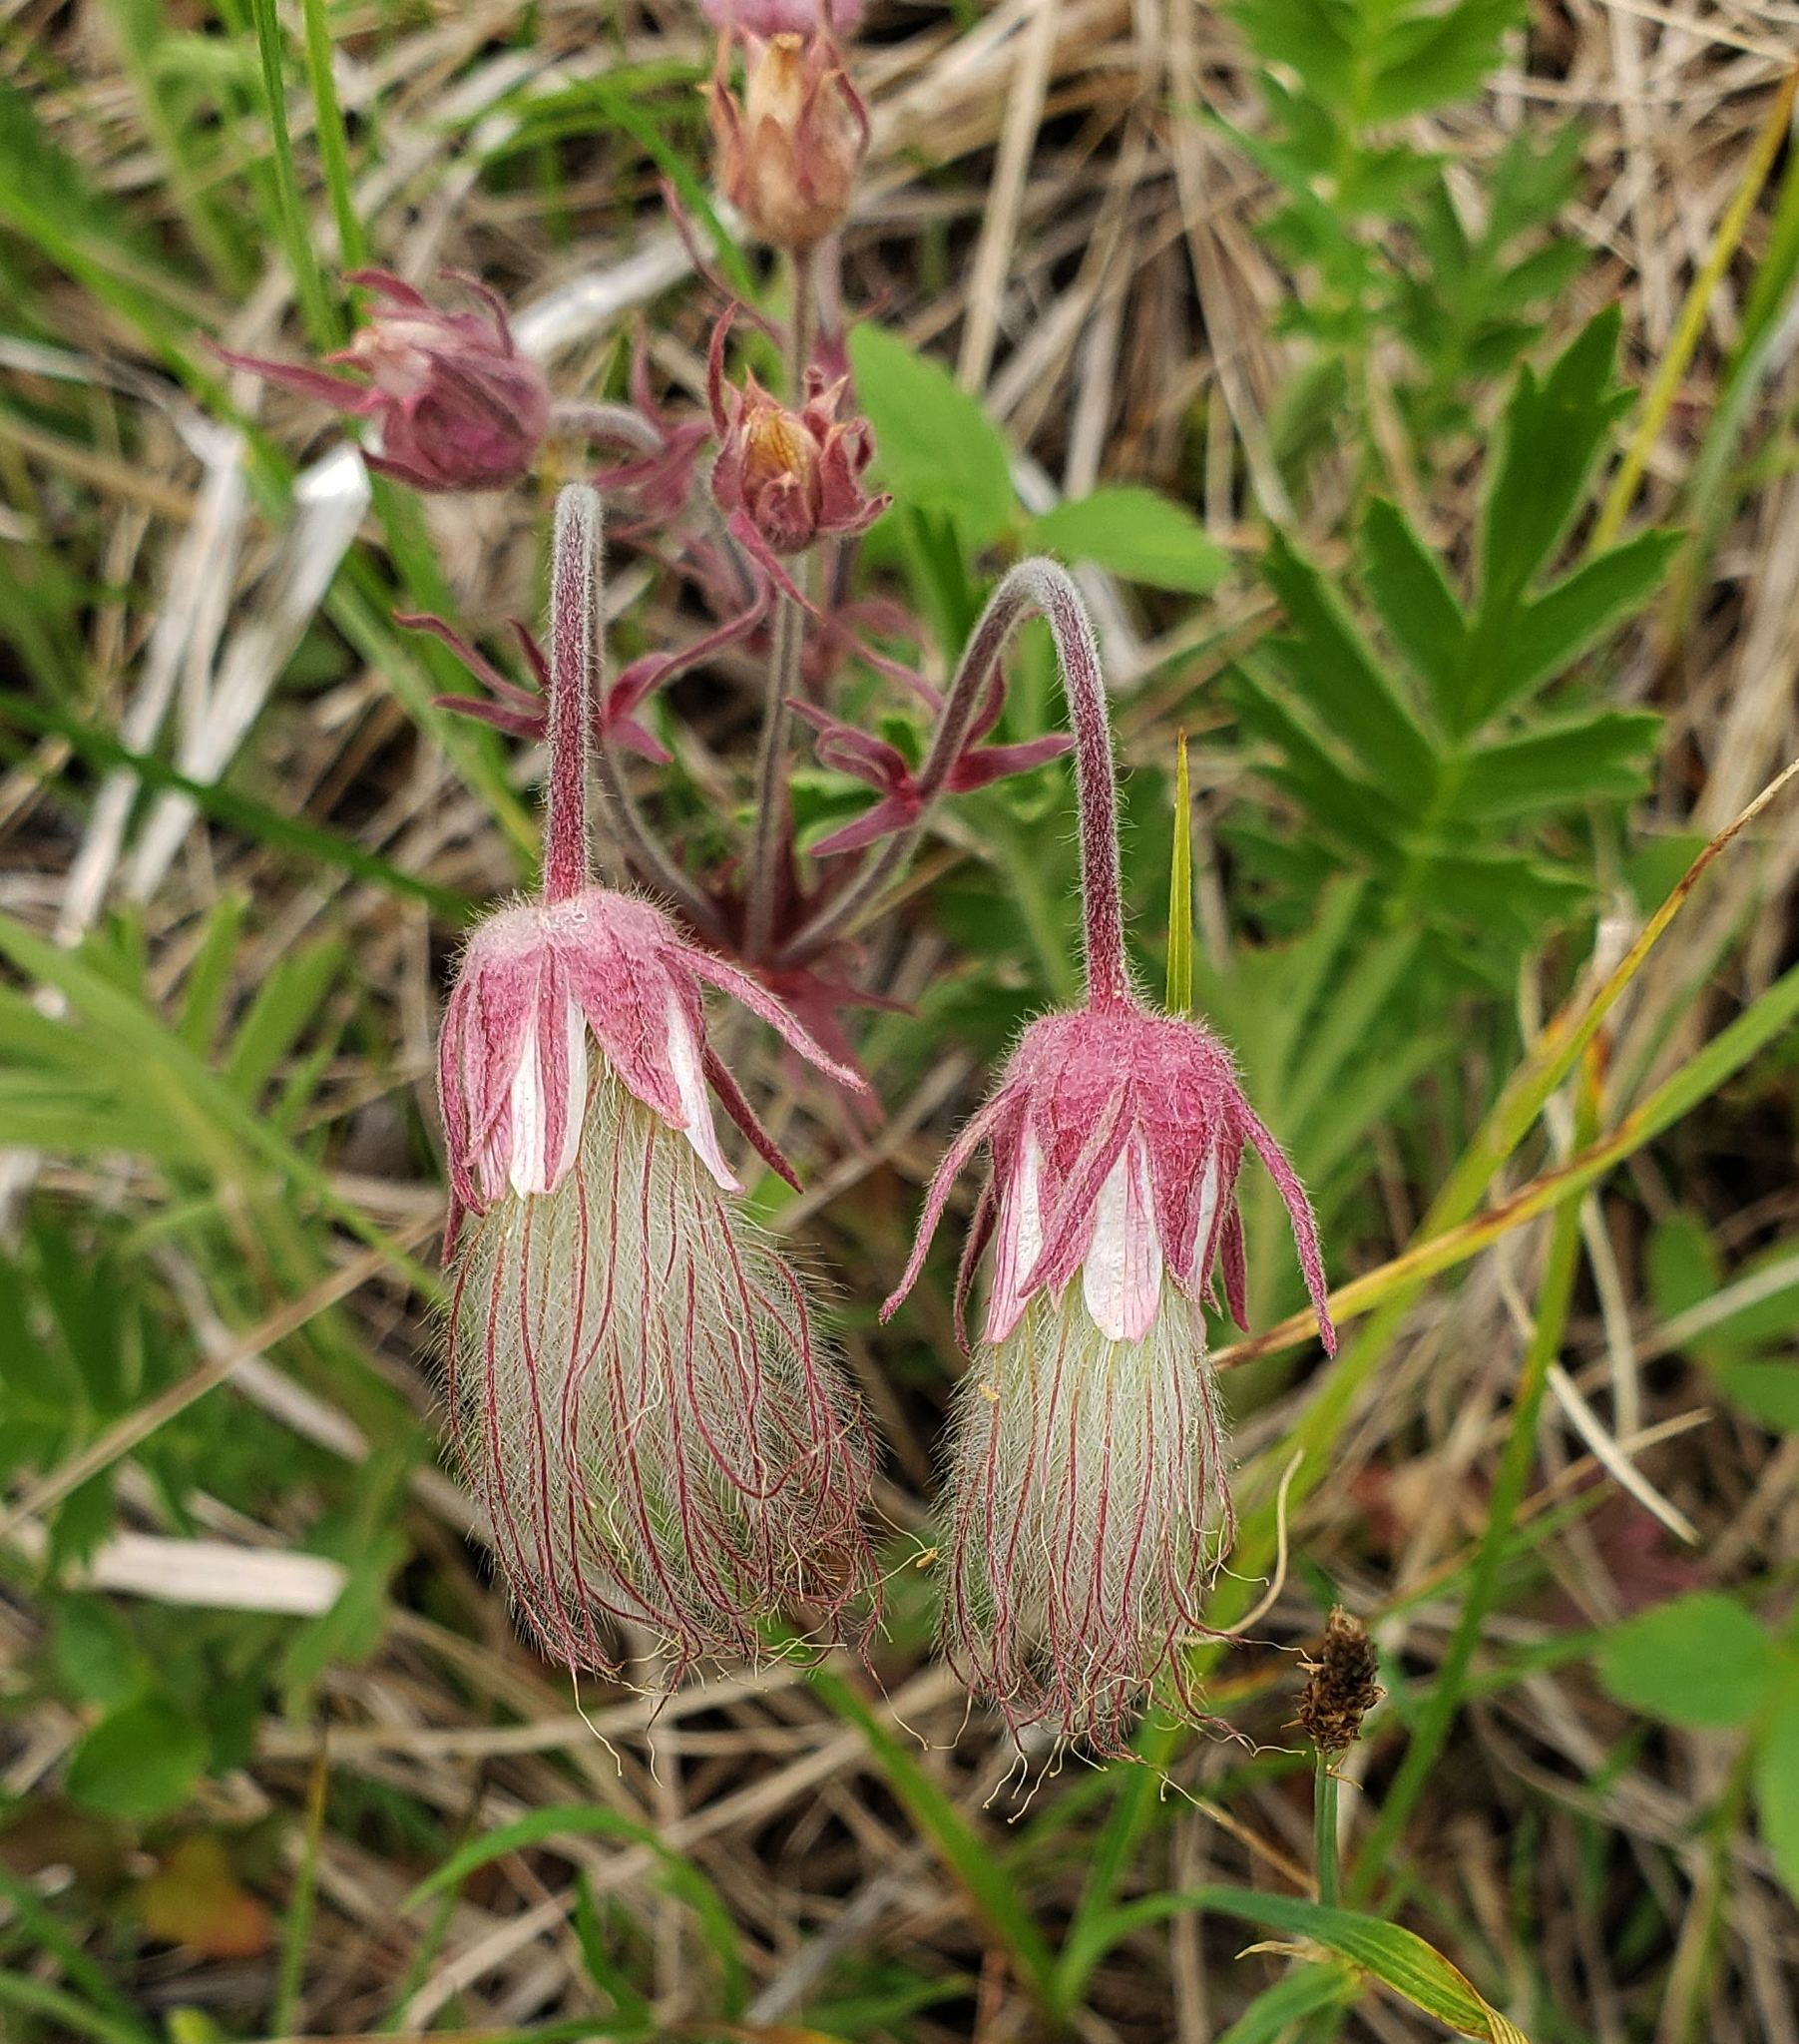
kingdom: Plantae
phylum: Tracheophyta
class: Magnoliopsida
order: Rosales
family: Rosaceae
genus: Geum
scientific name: Geum triflorum
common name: Old man's whiskers
